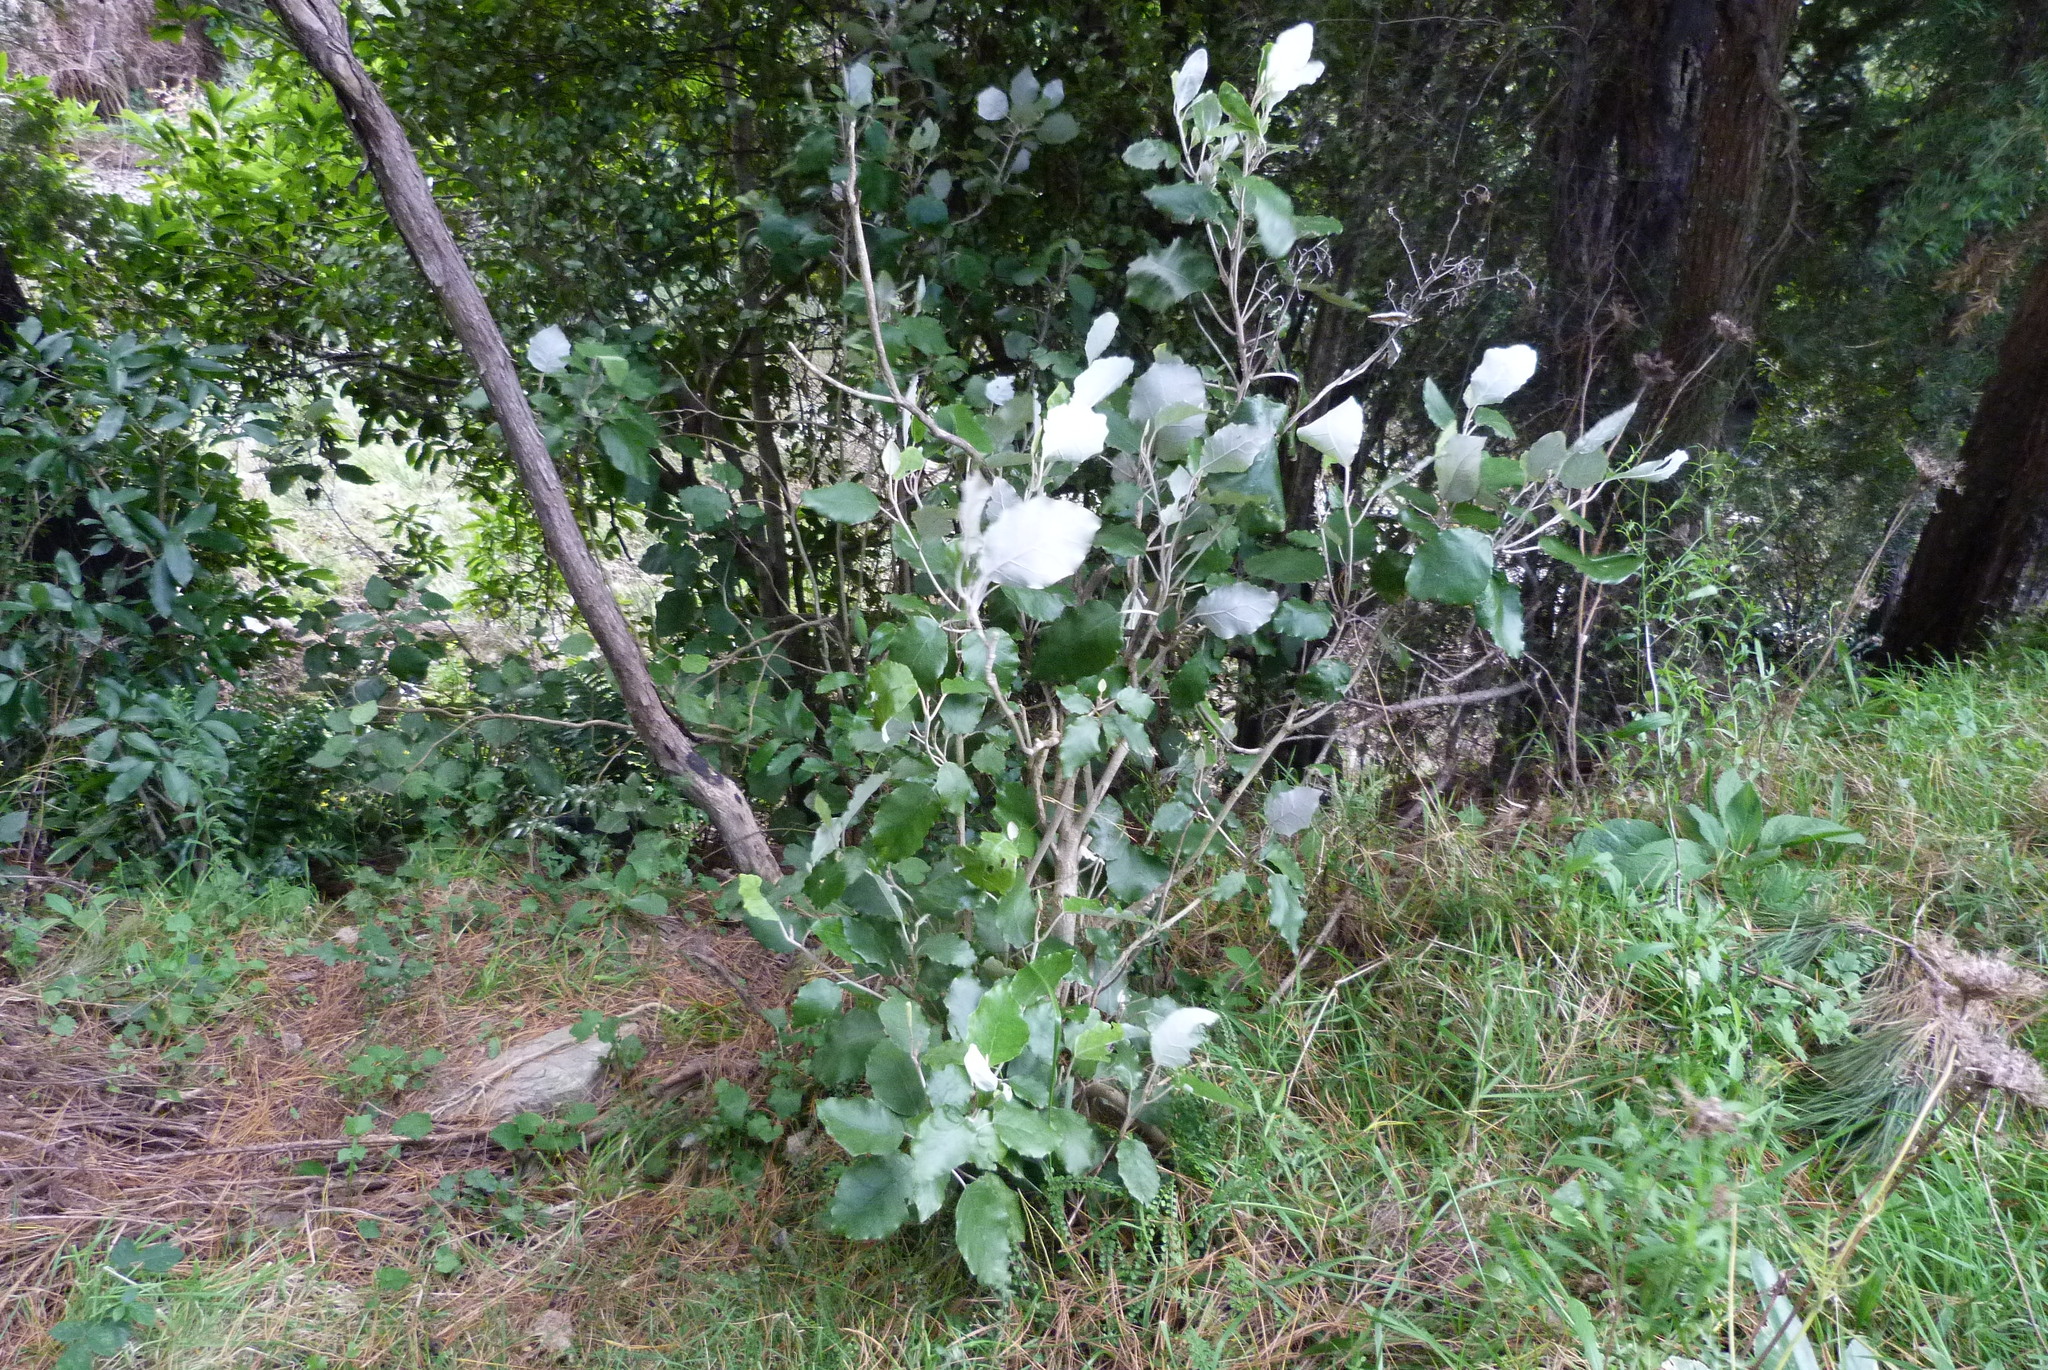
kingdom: Plantae
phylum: Tracheophyta
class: Magnoliopsida
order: Asterales
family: Asteraceae
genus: Brachyglottis
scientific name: Brachyglottis repanda
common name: Hedge ragwort
